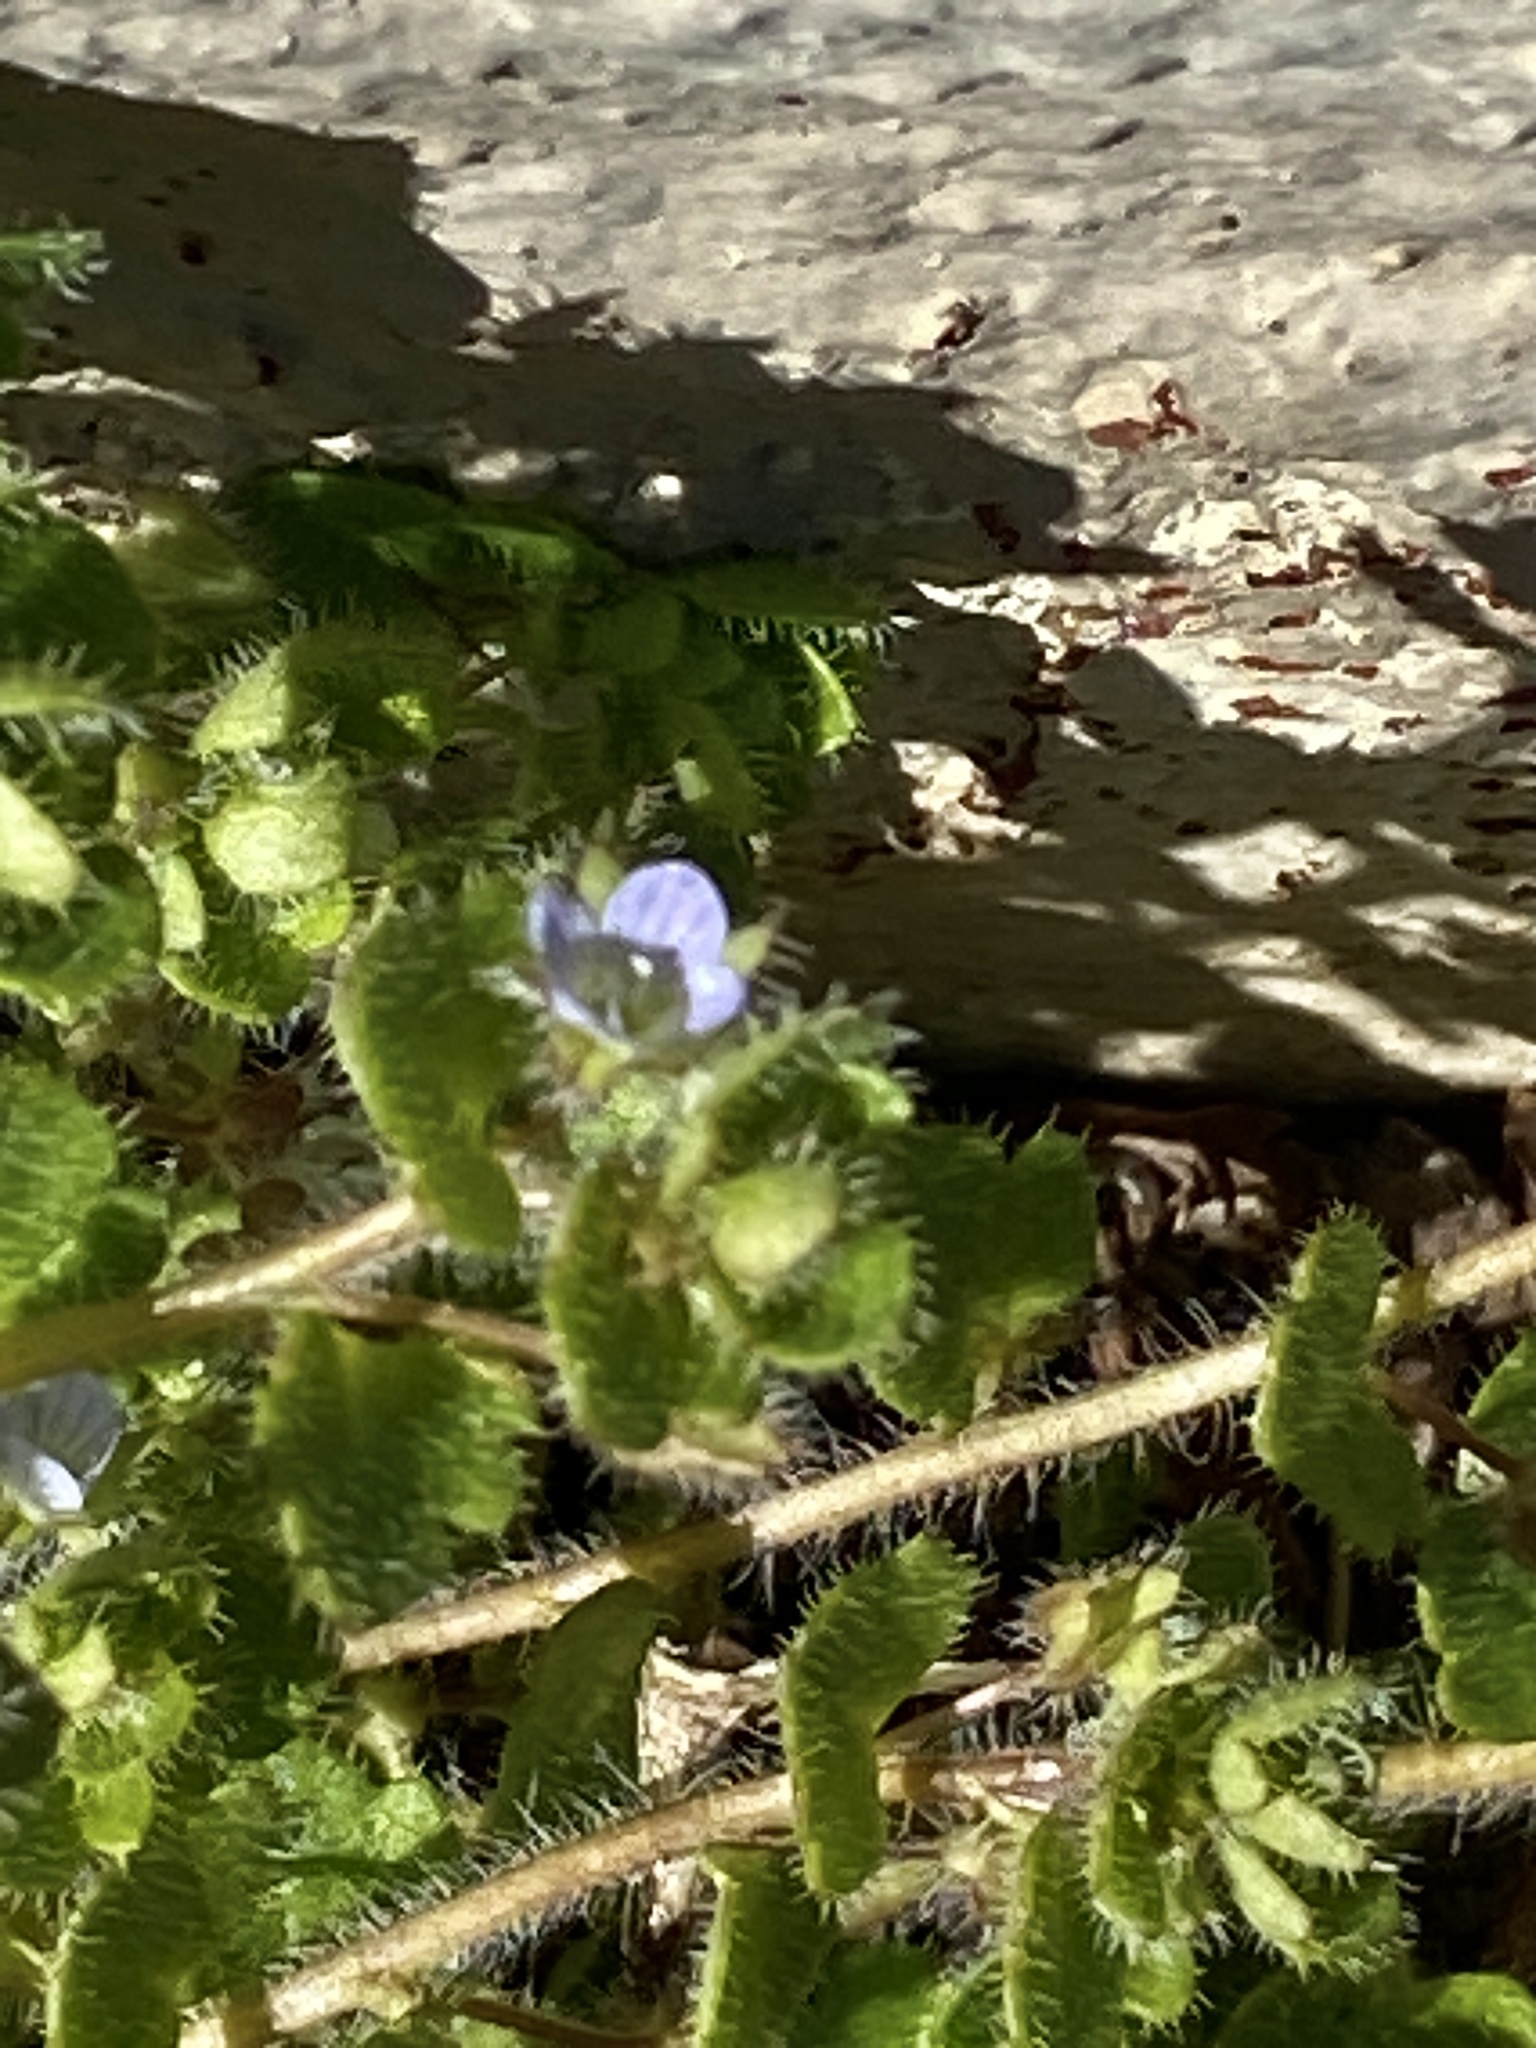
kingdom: Plantae
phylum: Tracheophyta
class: Magnoliopsida
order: Lamiales
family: Plantaginaceae
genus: Veronica
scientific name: Veronica hederifolia
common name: Ivy-leaved speedwell
